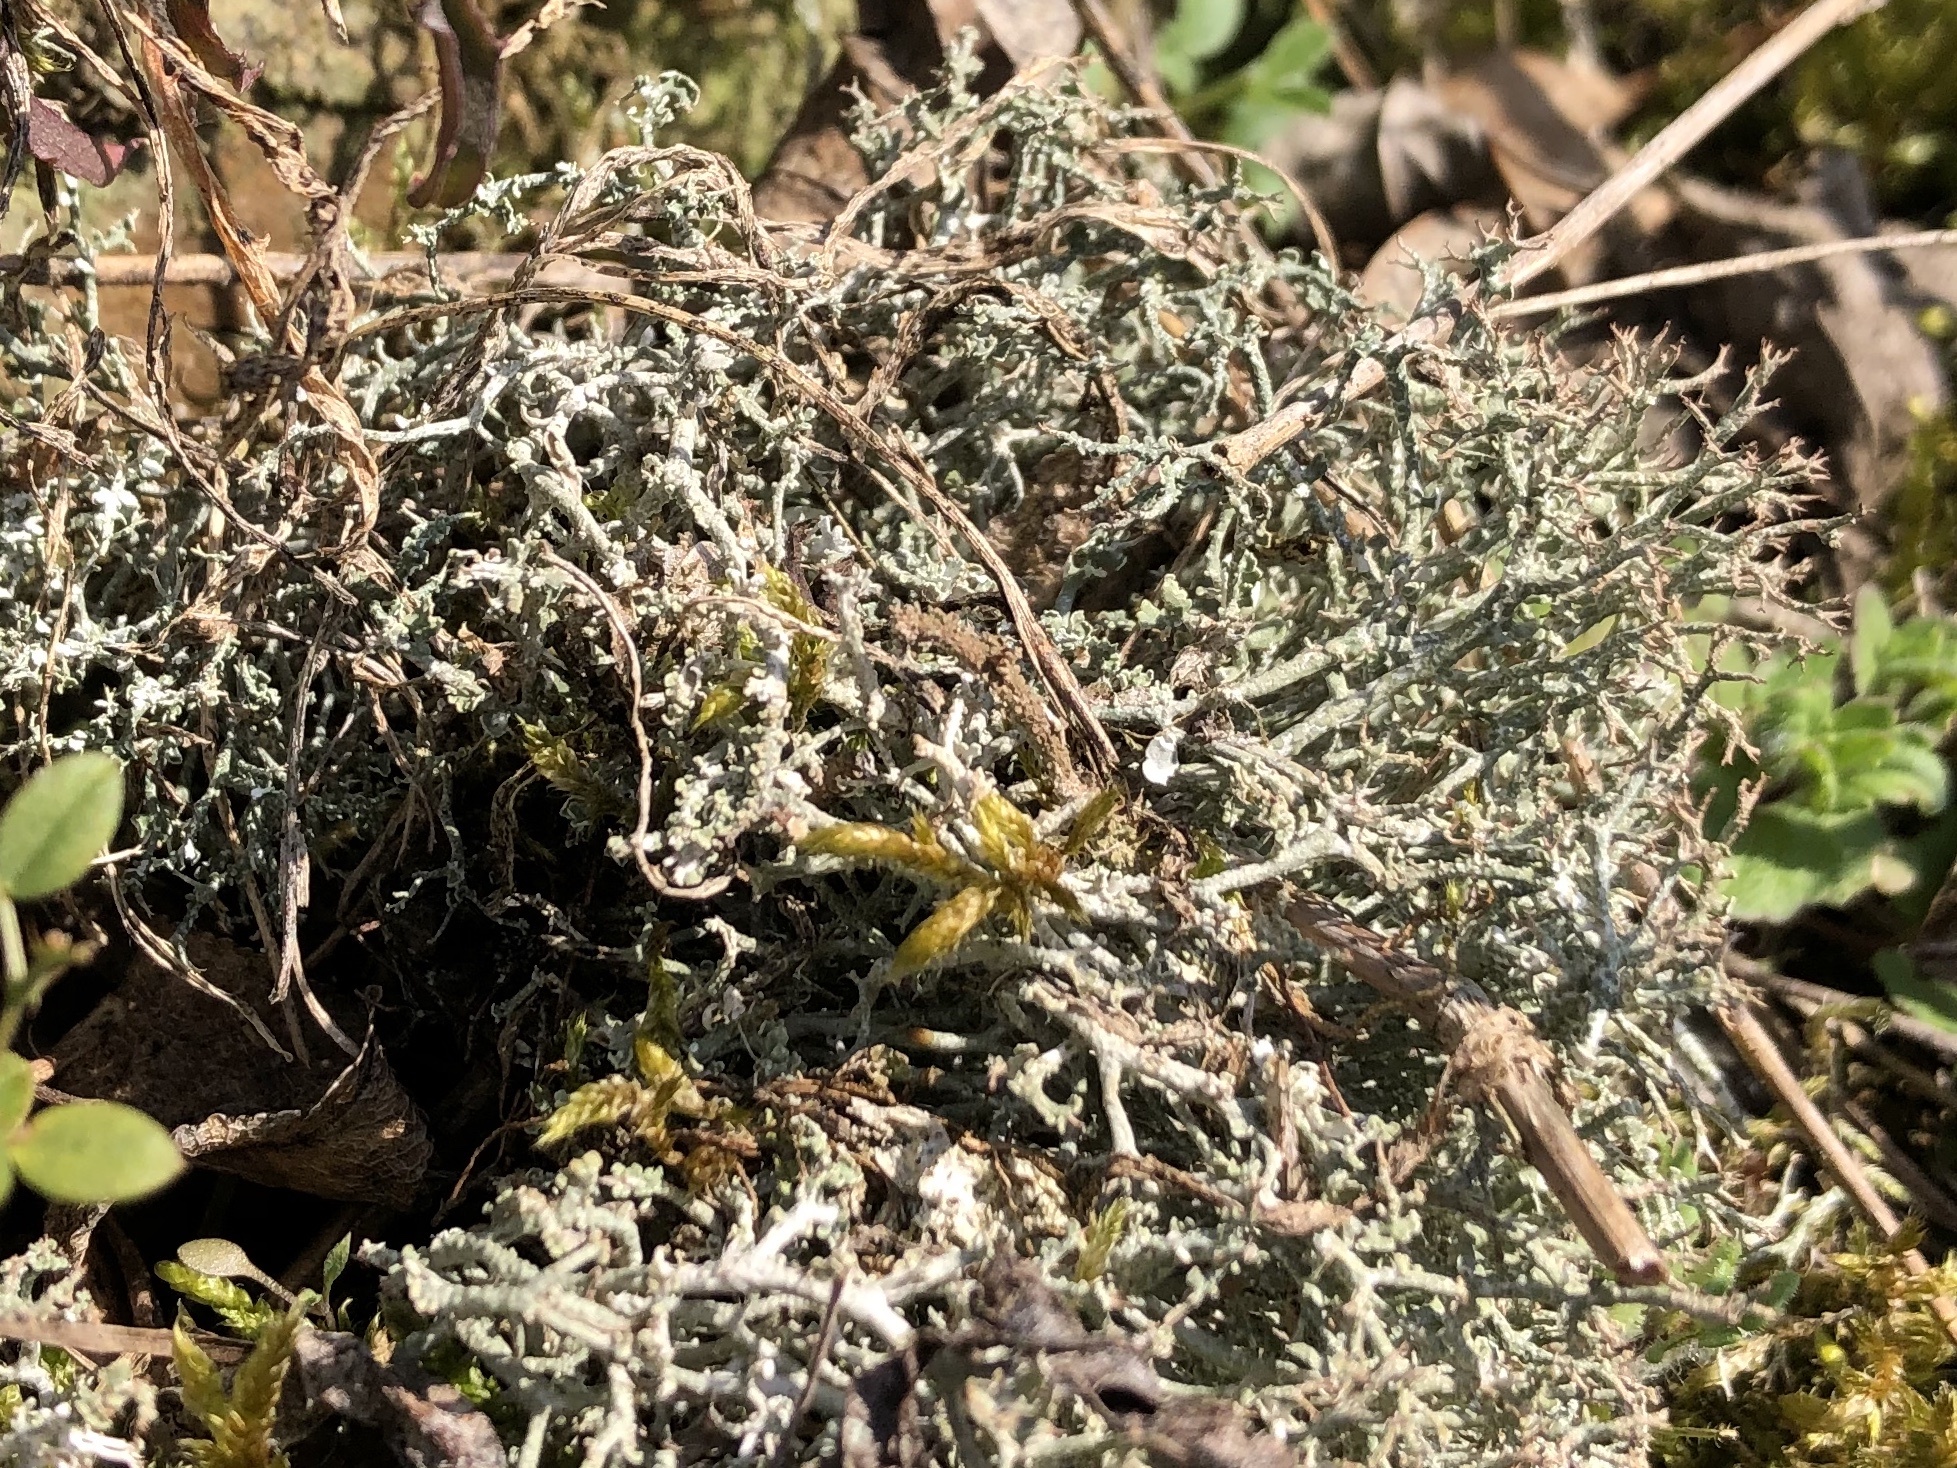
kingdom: Fungi
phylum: Ascomycota
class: Lecanoromycetes
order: Lecanorales
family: Cladoniaceae
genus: Cladonia
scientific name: Cladonia furcata
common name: Many-forked cladonia
